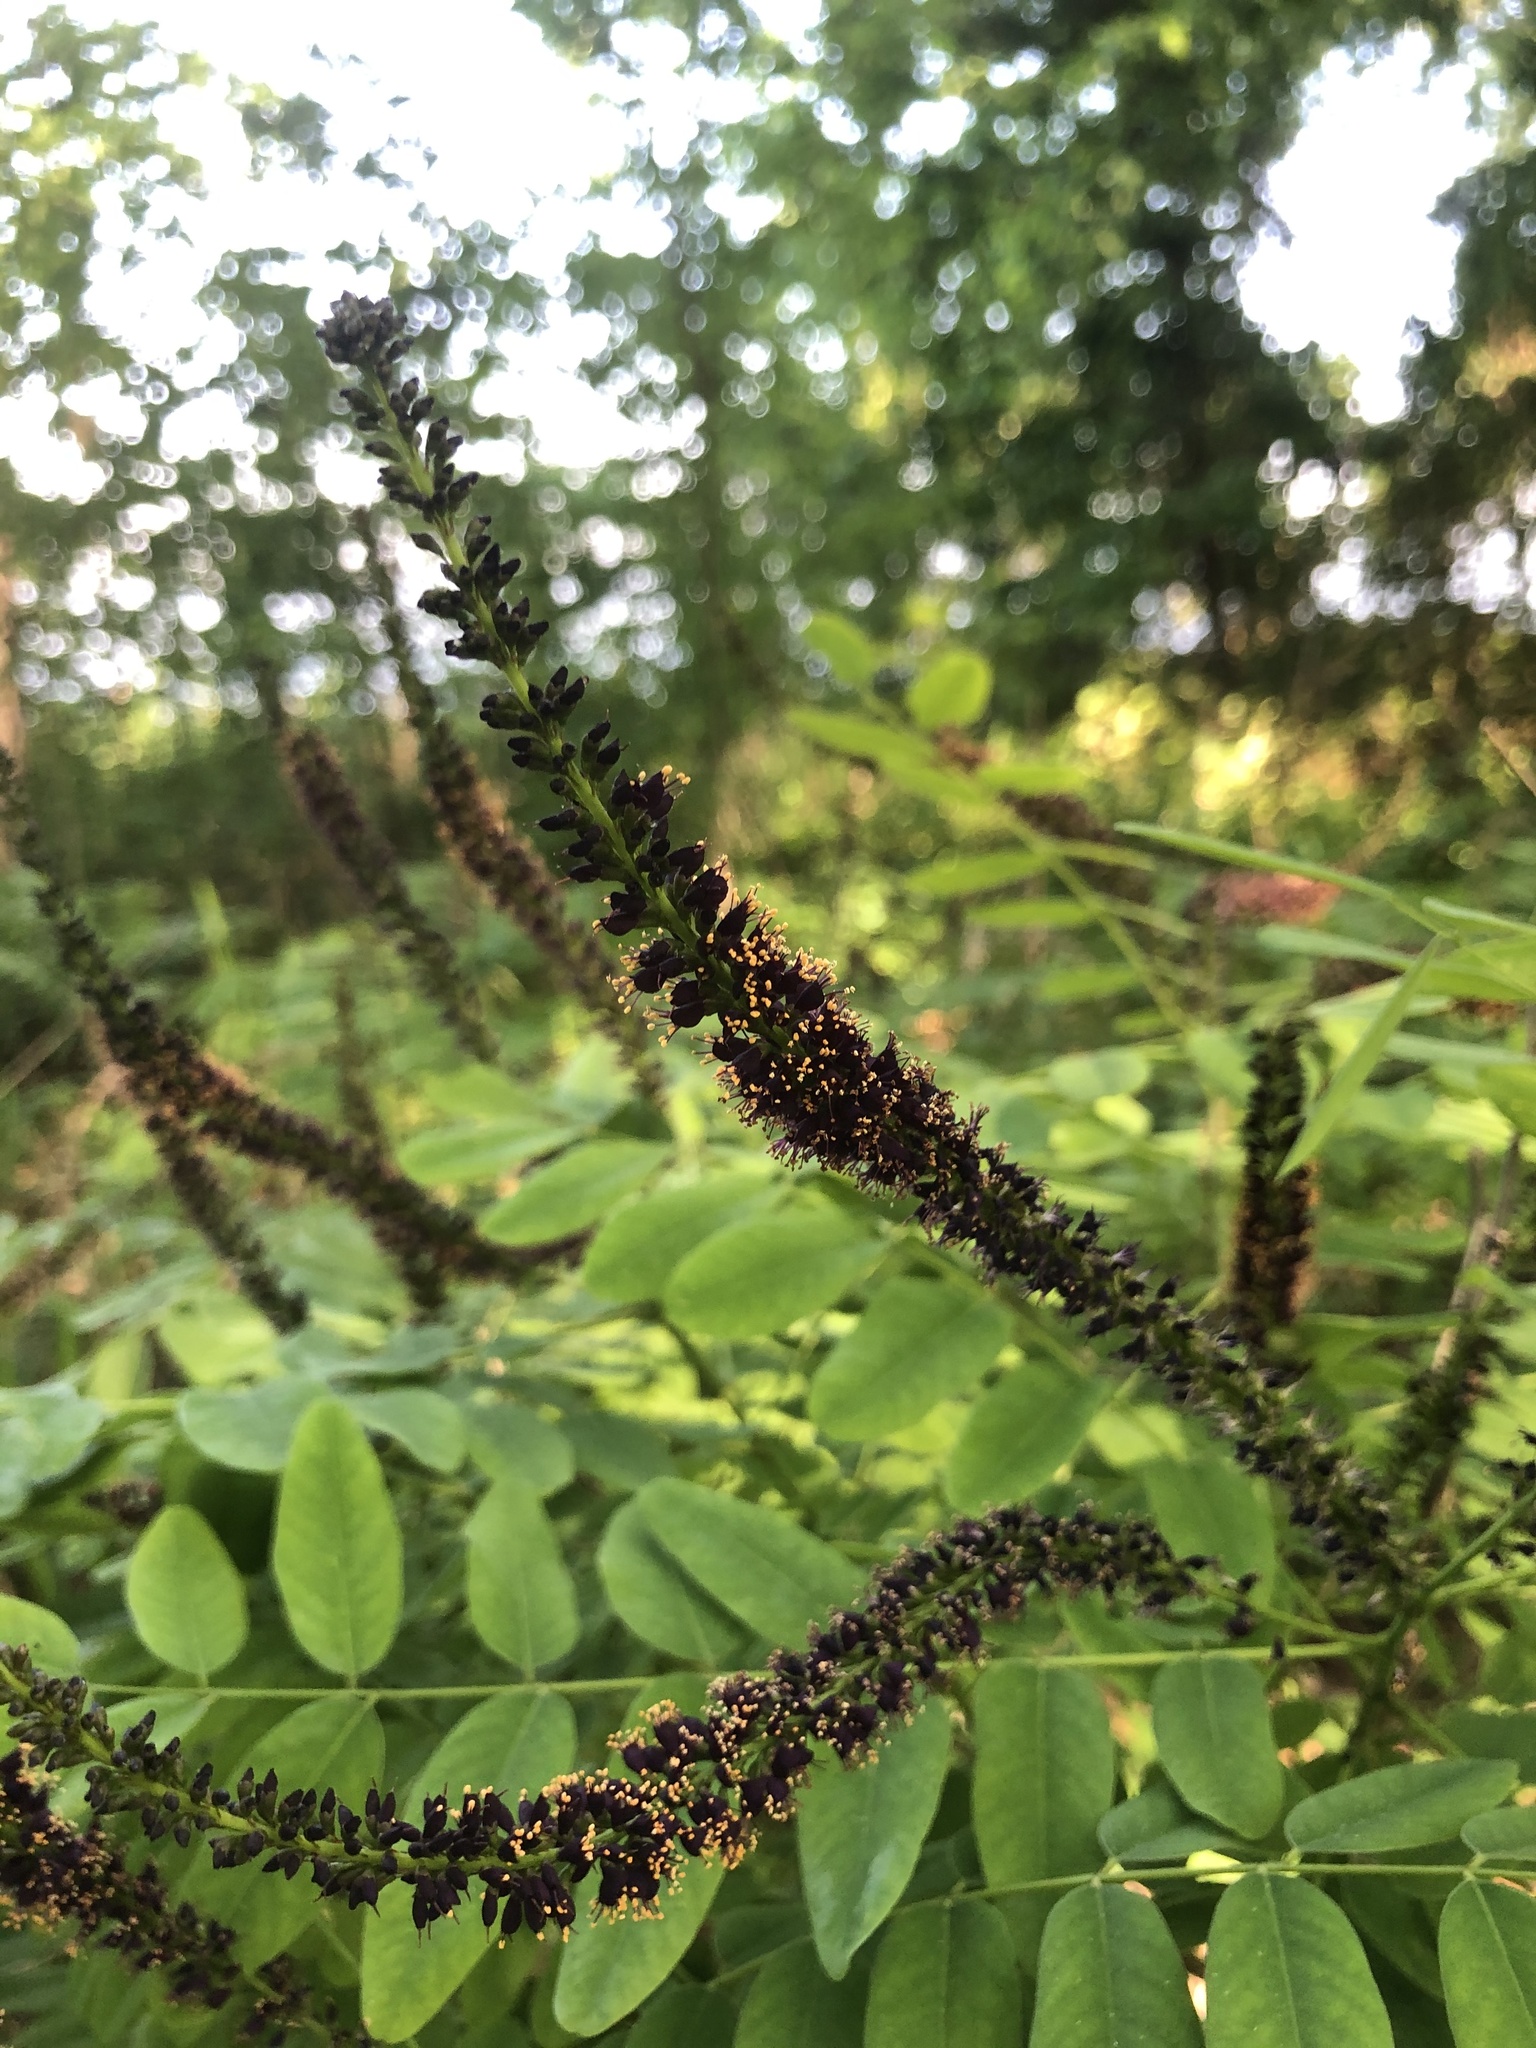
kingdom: Plantae
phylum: Tracheophyta
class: Magnoliopsida
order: Fabales
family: Fabaceae
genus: Amorpha
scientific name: Amorpha fruticosa
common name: False indigo
